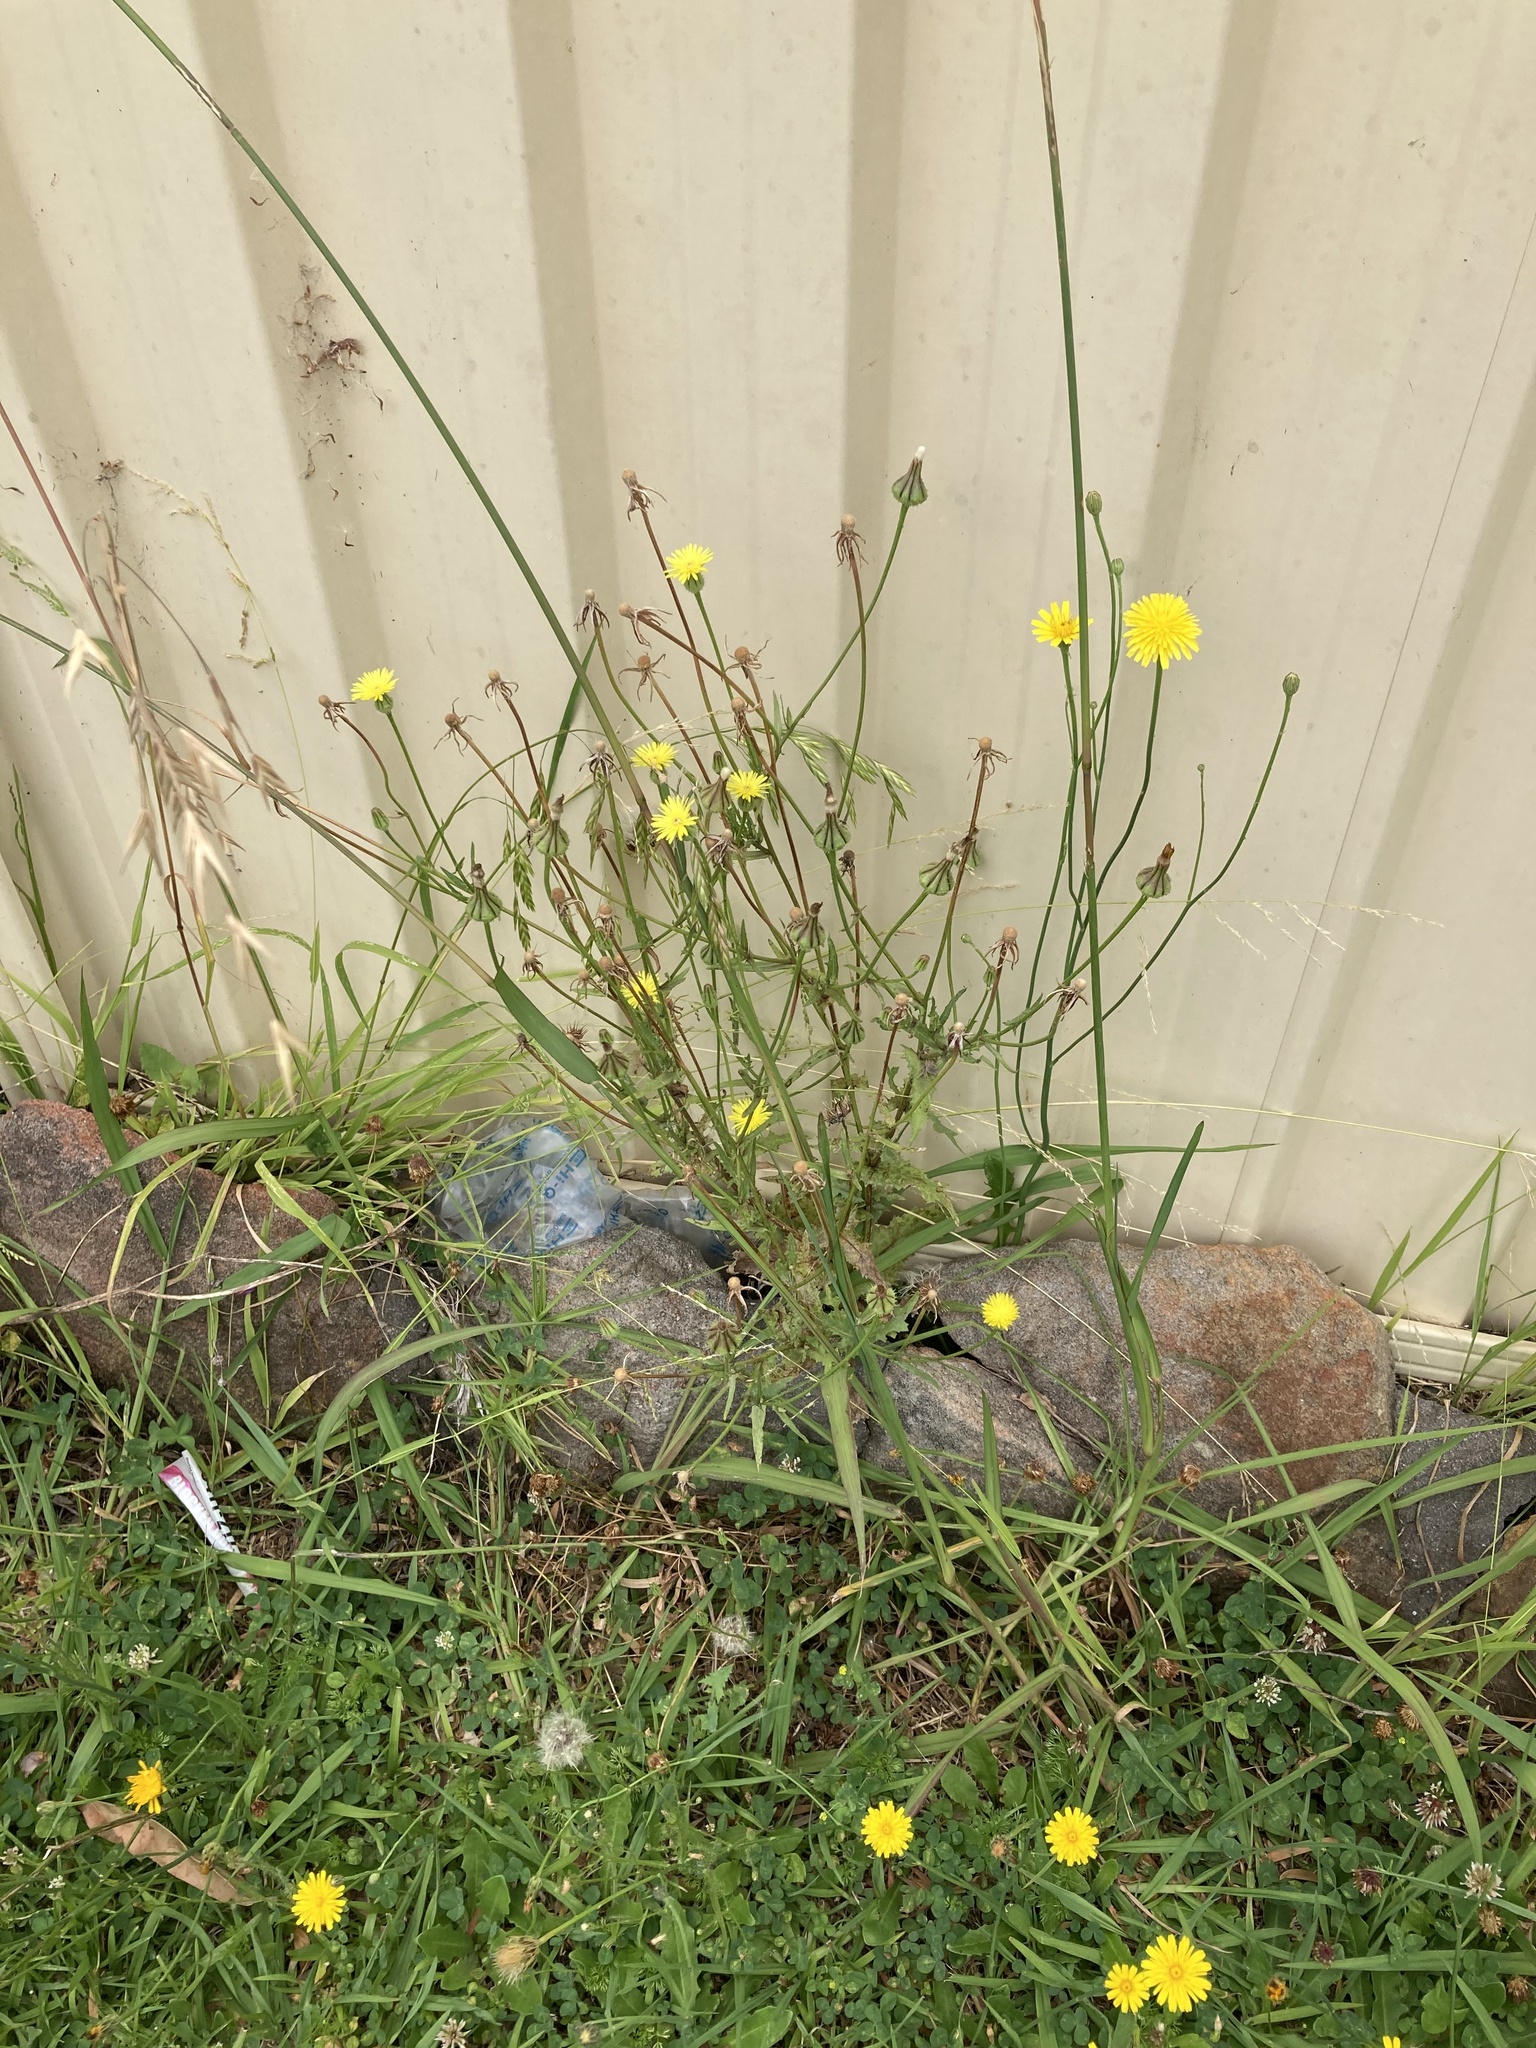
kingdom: Plantae
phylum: Tracheophyta
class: Magnoliopsida
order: Asterales
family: Asteraceae
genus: Urospermum
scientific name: Urospermum picroides
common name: False hawkbit
